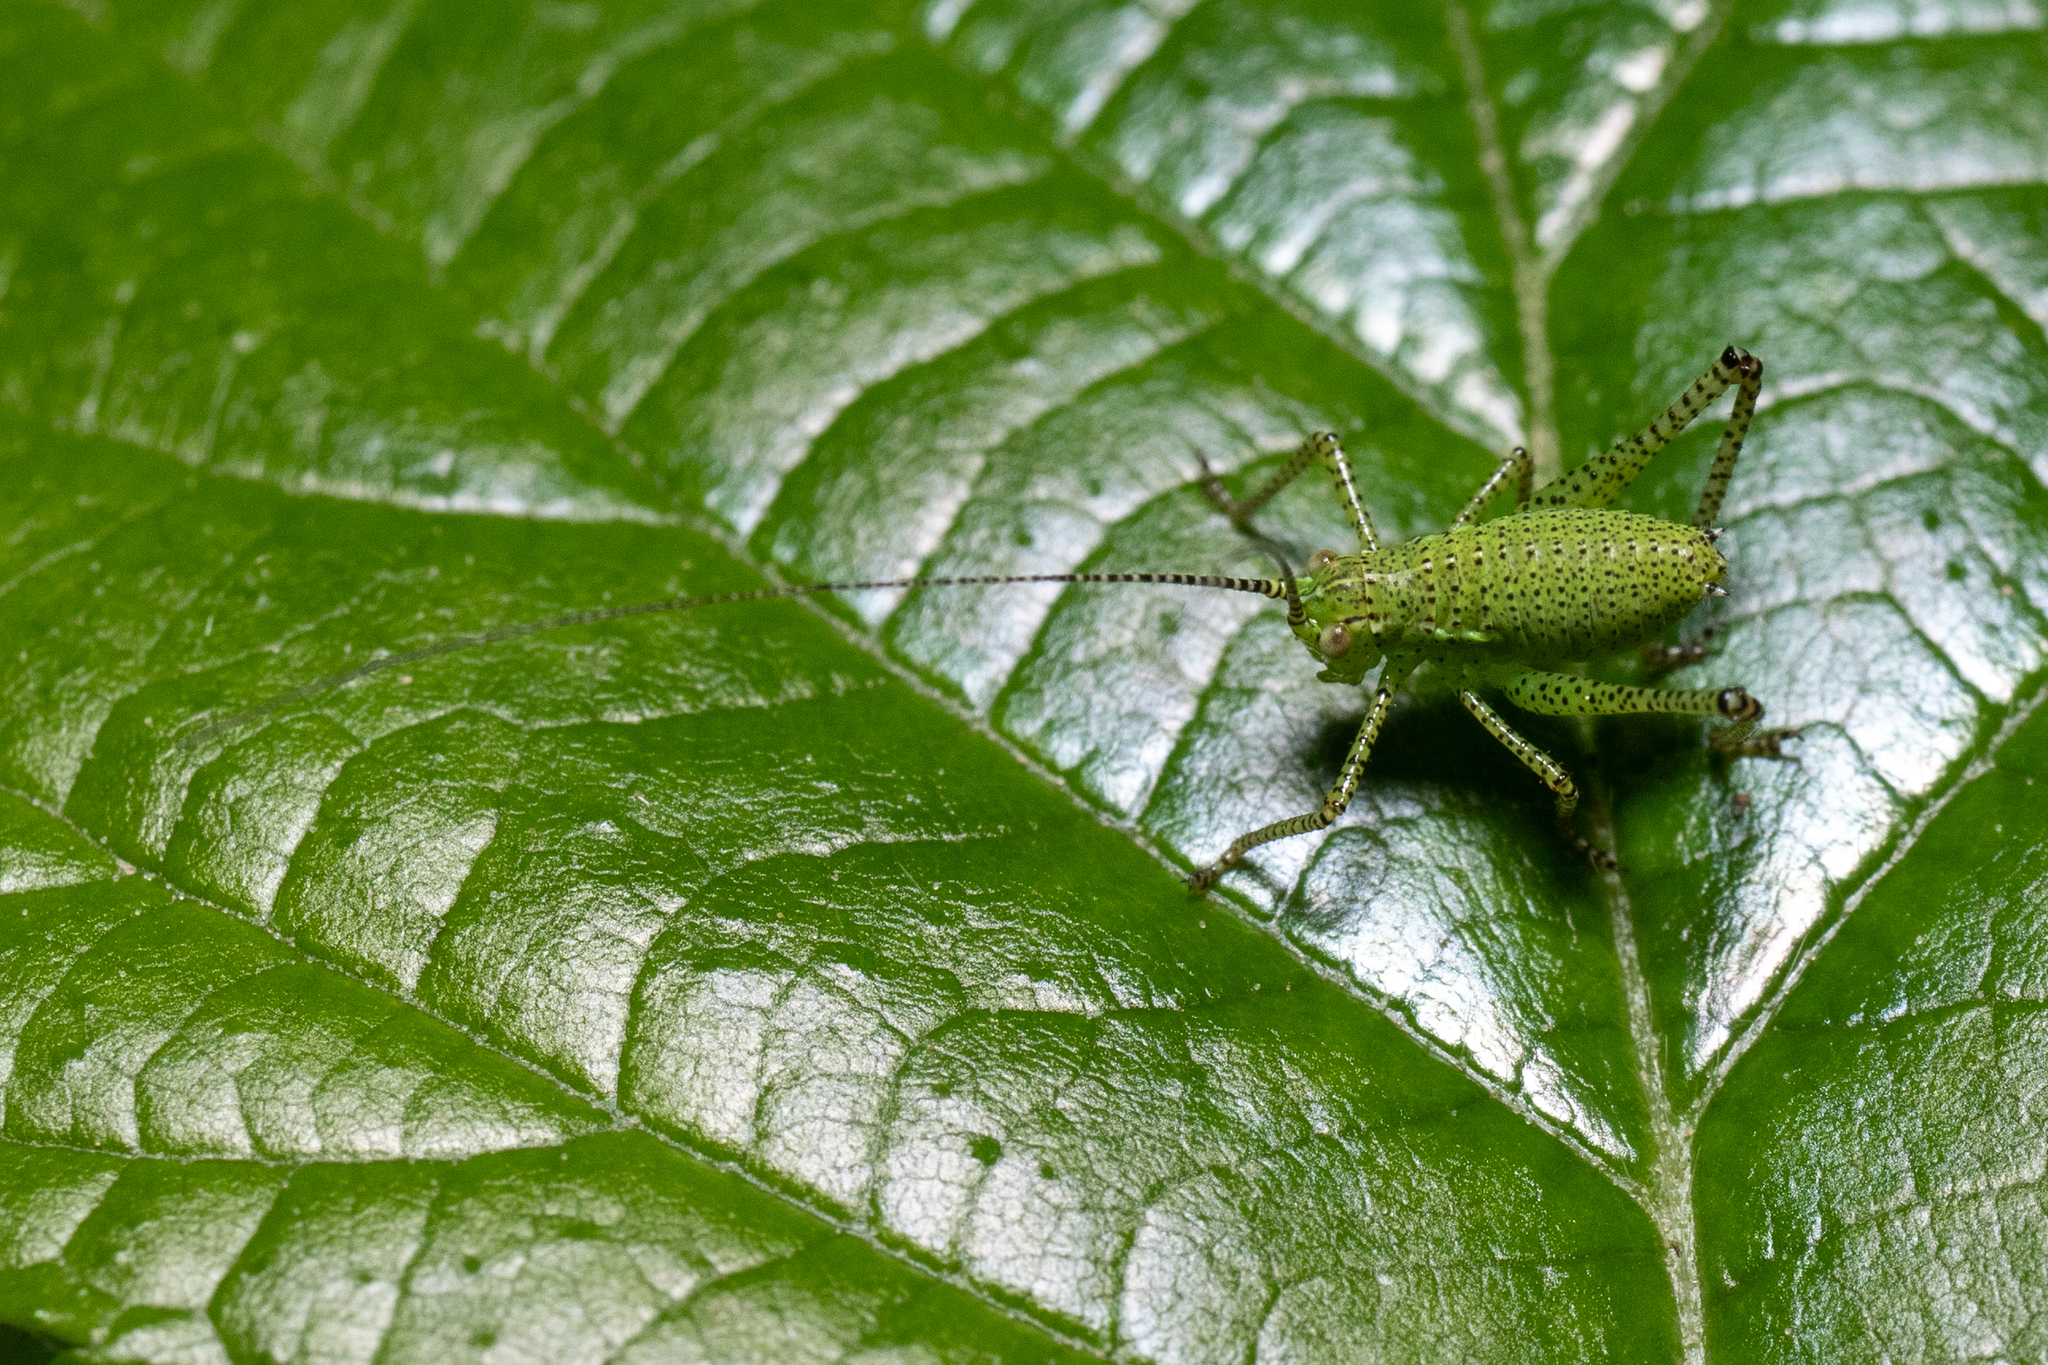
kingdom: Animalia
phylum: Arthropoda
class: Insecta
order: Orthoptera
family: Tettigoniidae
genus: Leptophyes
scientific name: Leptophyes punctatissima
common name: Speckled bush-cricket
